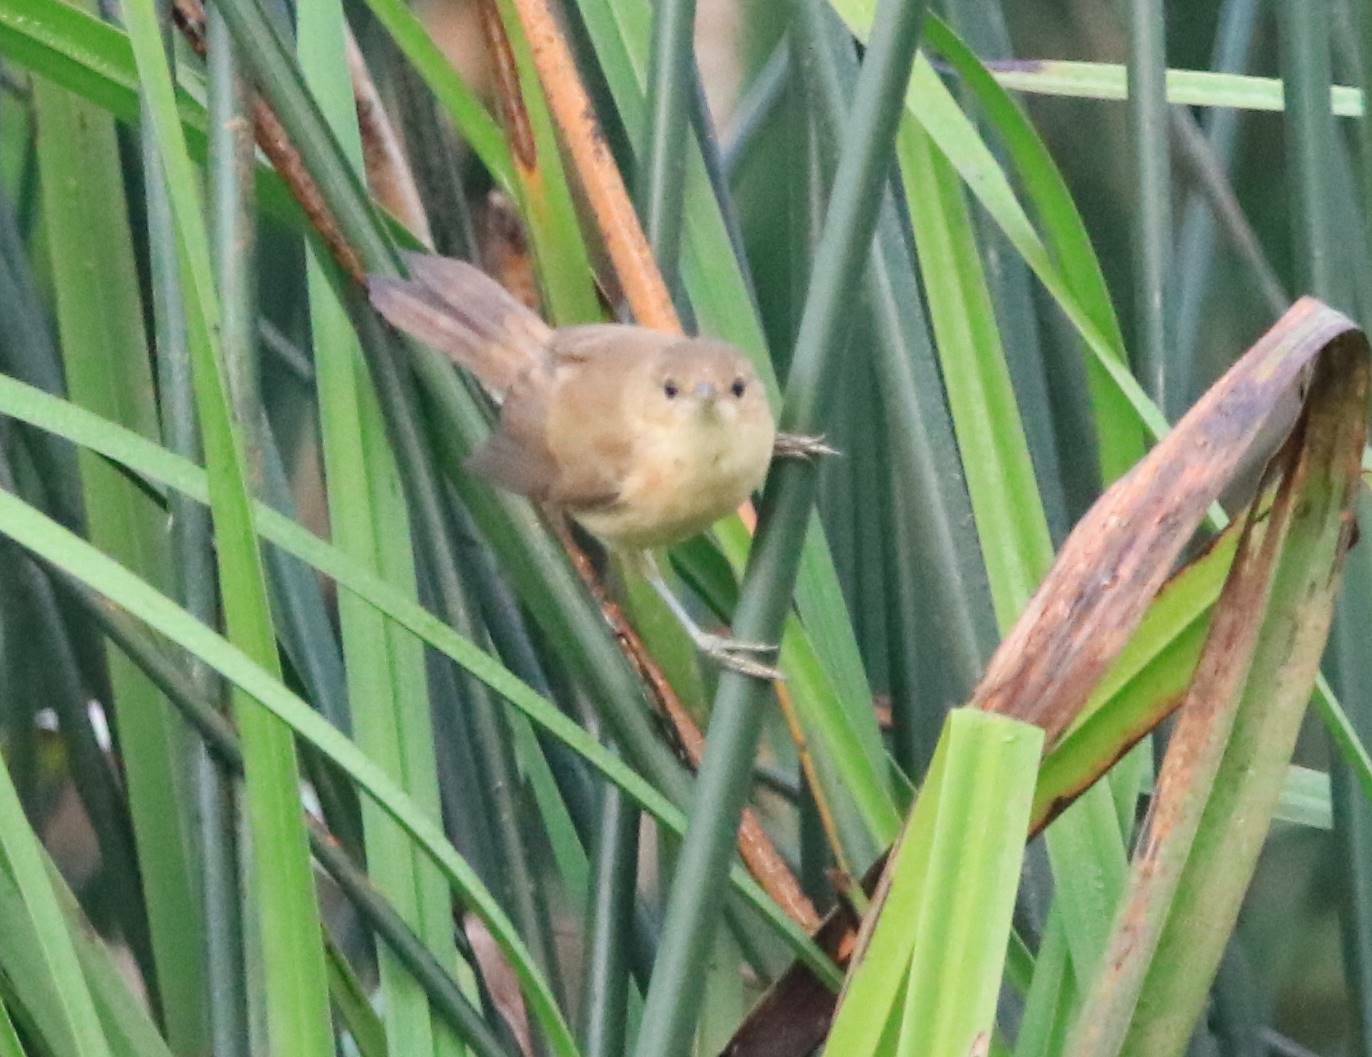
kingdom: Animalia
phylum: Chordata
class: Aves
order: Passeriformes
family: Acrocephalidae
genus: Acrocephalus
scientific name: Acrocephalus scirpaceus
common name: Eurasian reed warbler
